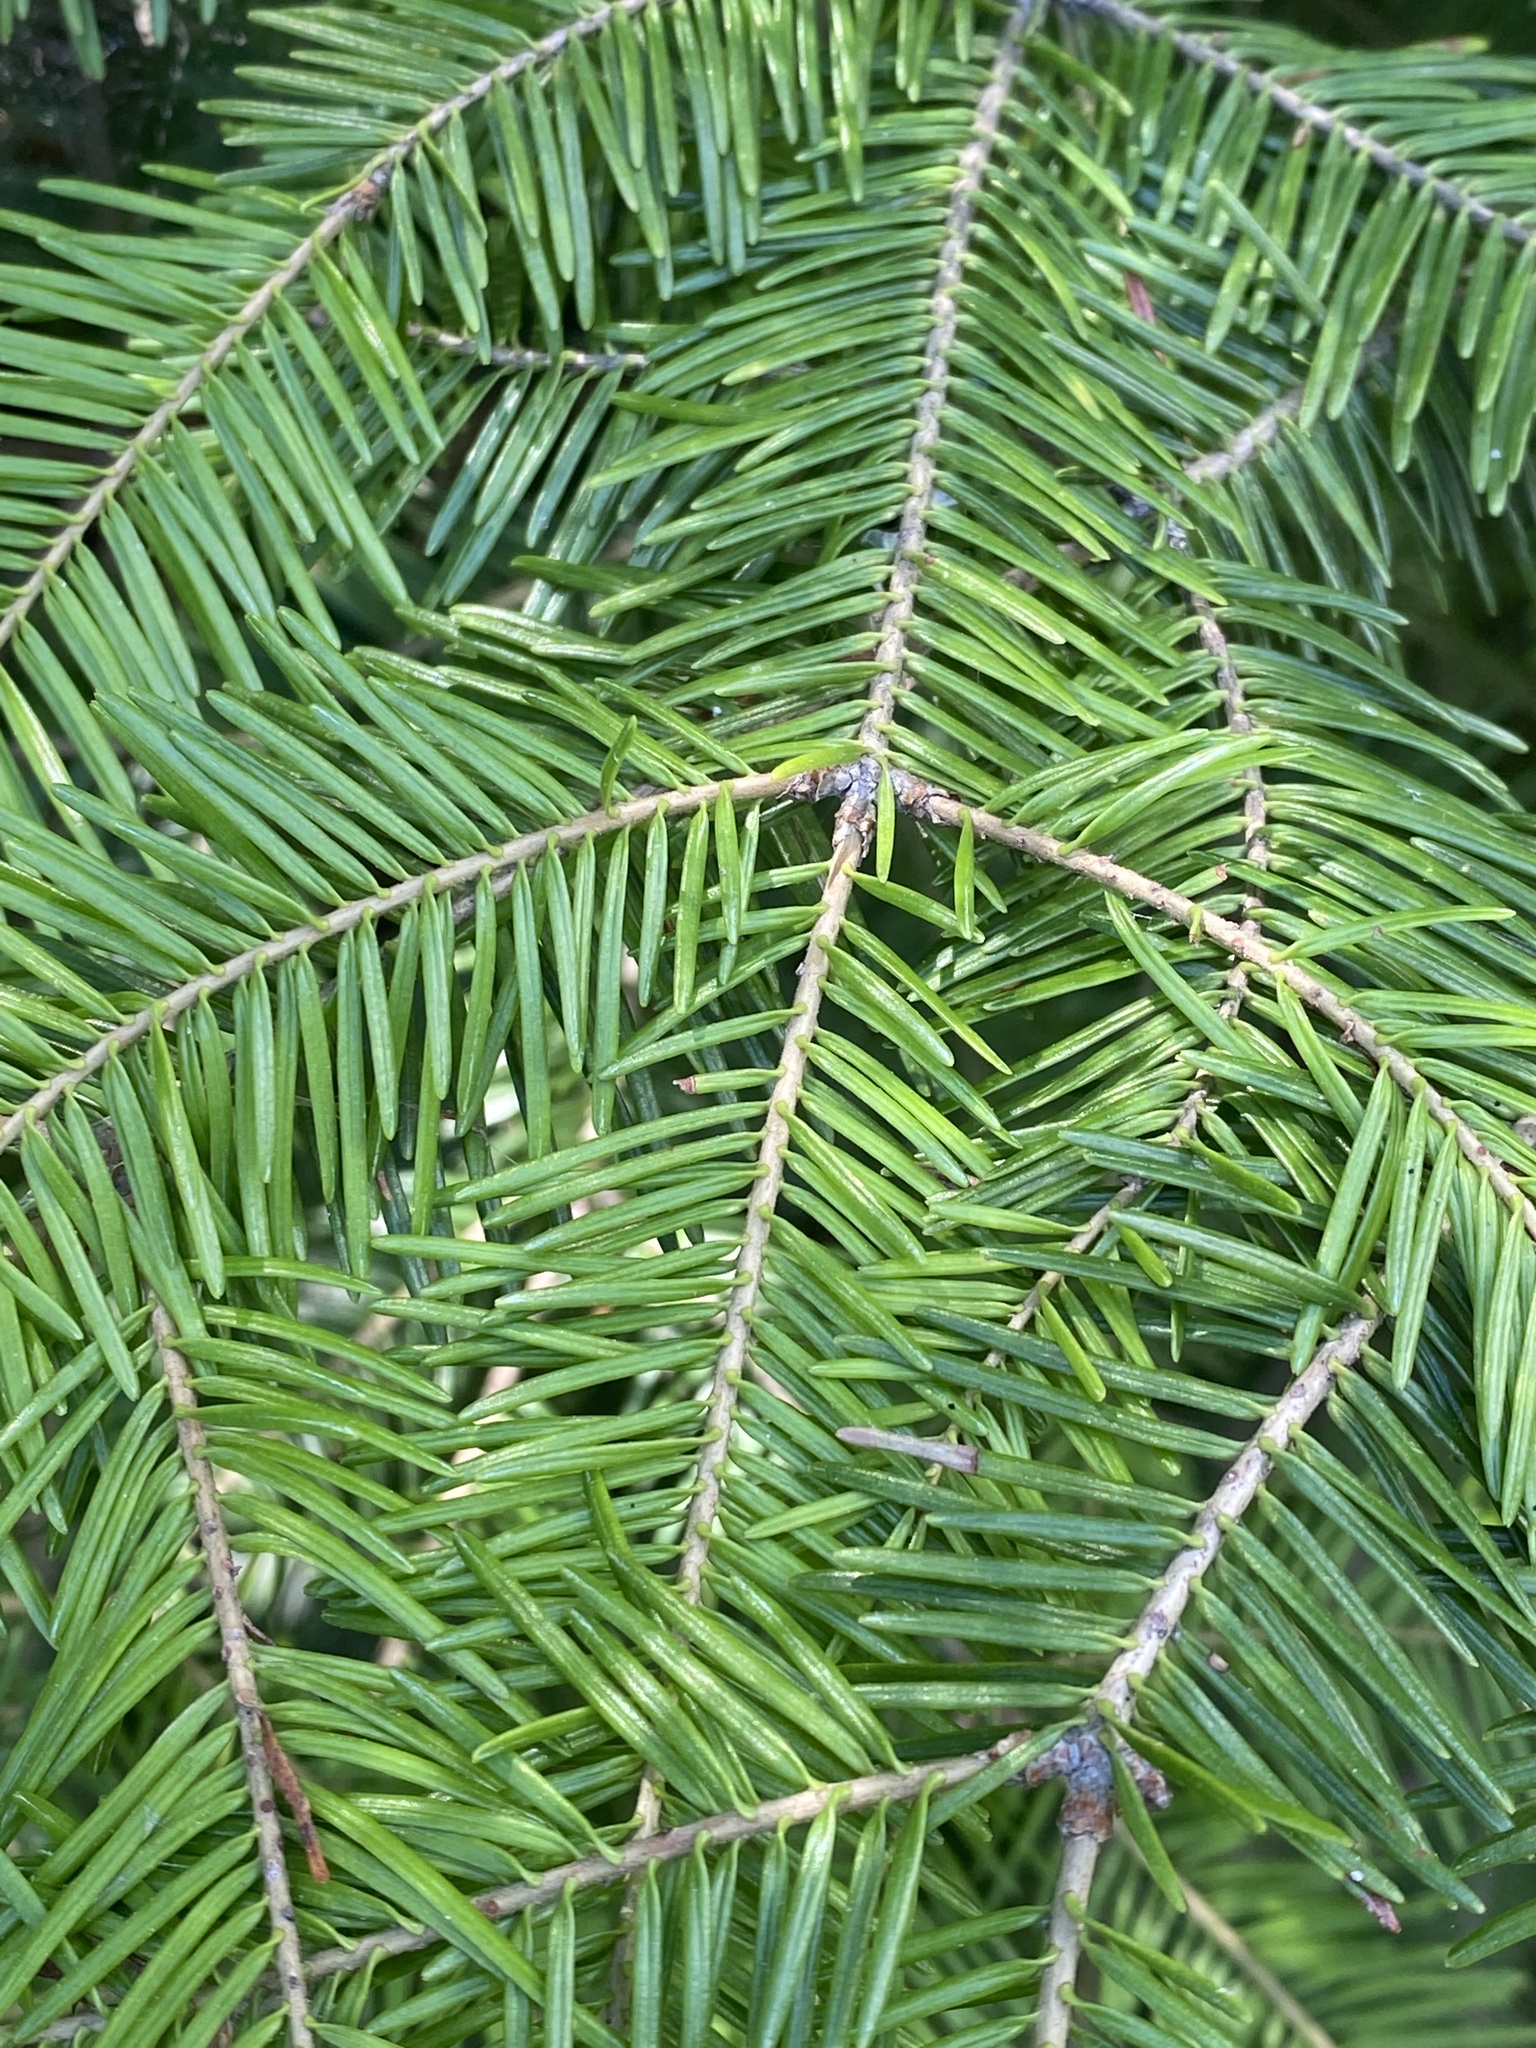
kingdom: Plantae
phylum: Tracheophyta
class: Pinopsida
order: Pinales
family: Pinaceae
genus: Abies
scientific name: Abies balsamea
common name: Balsam fir
